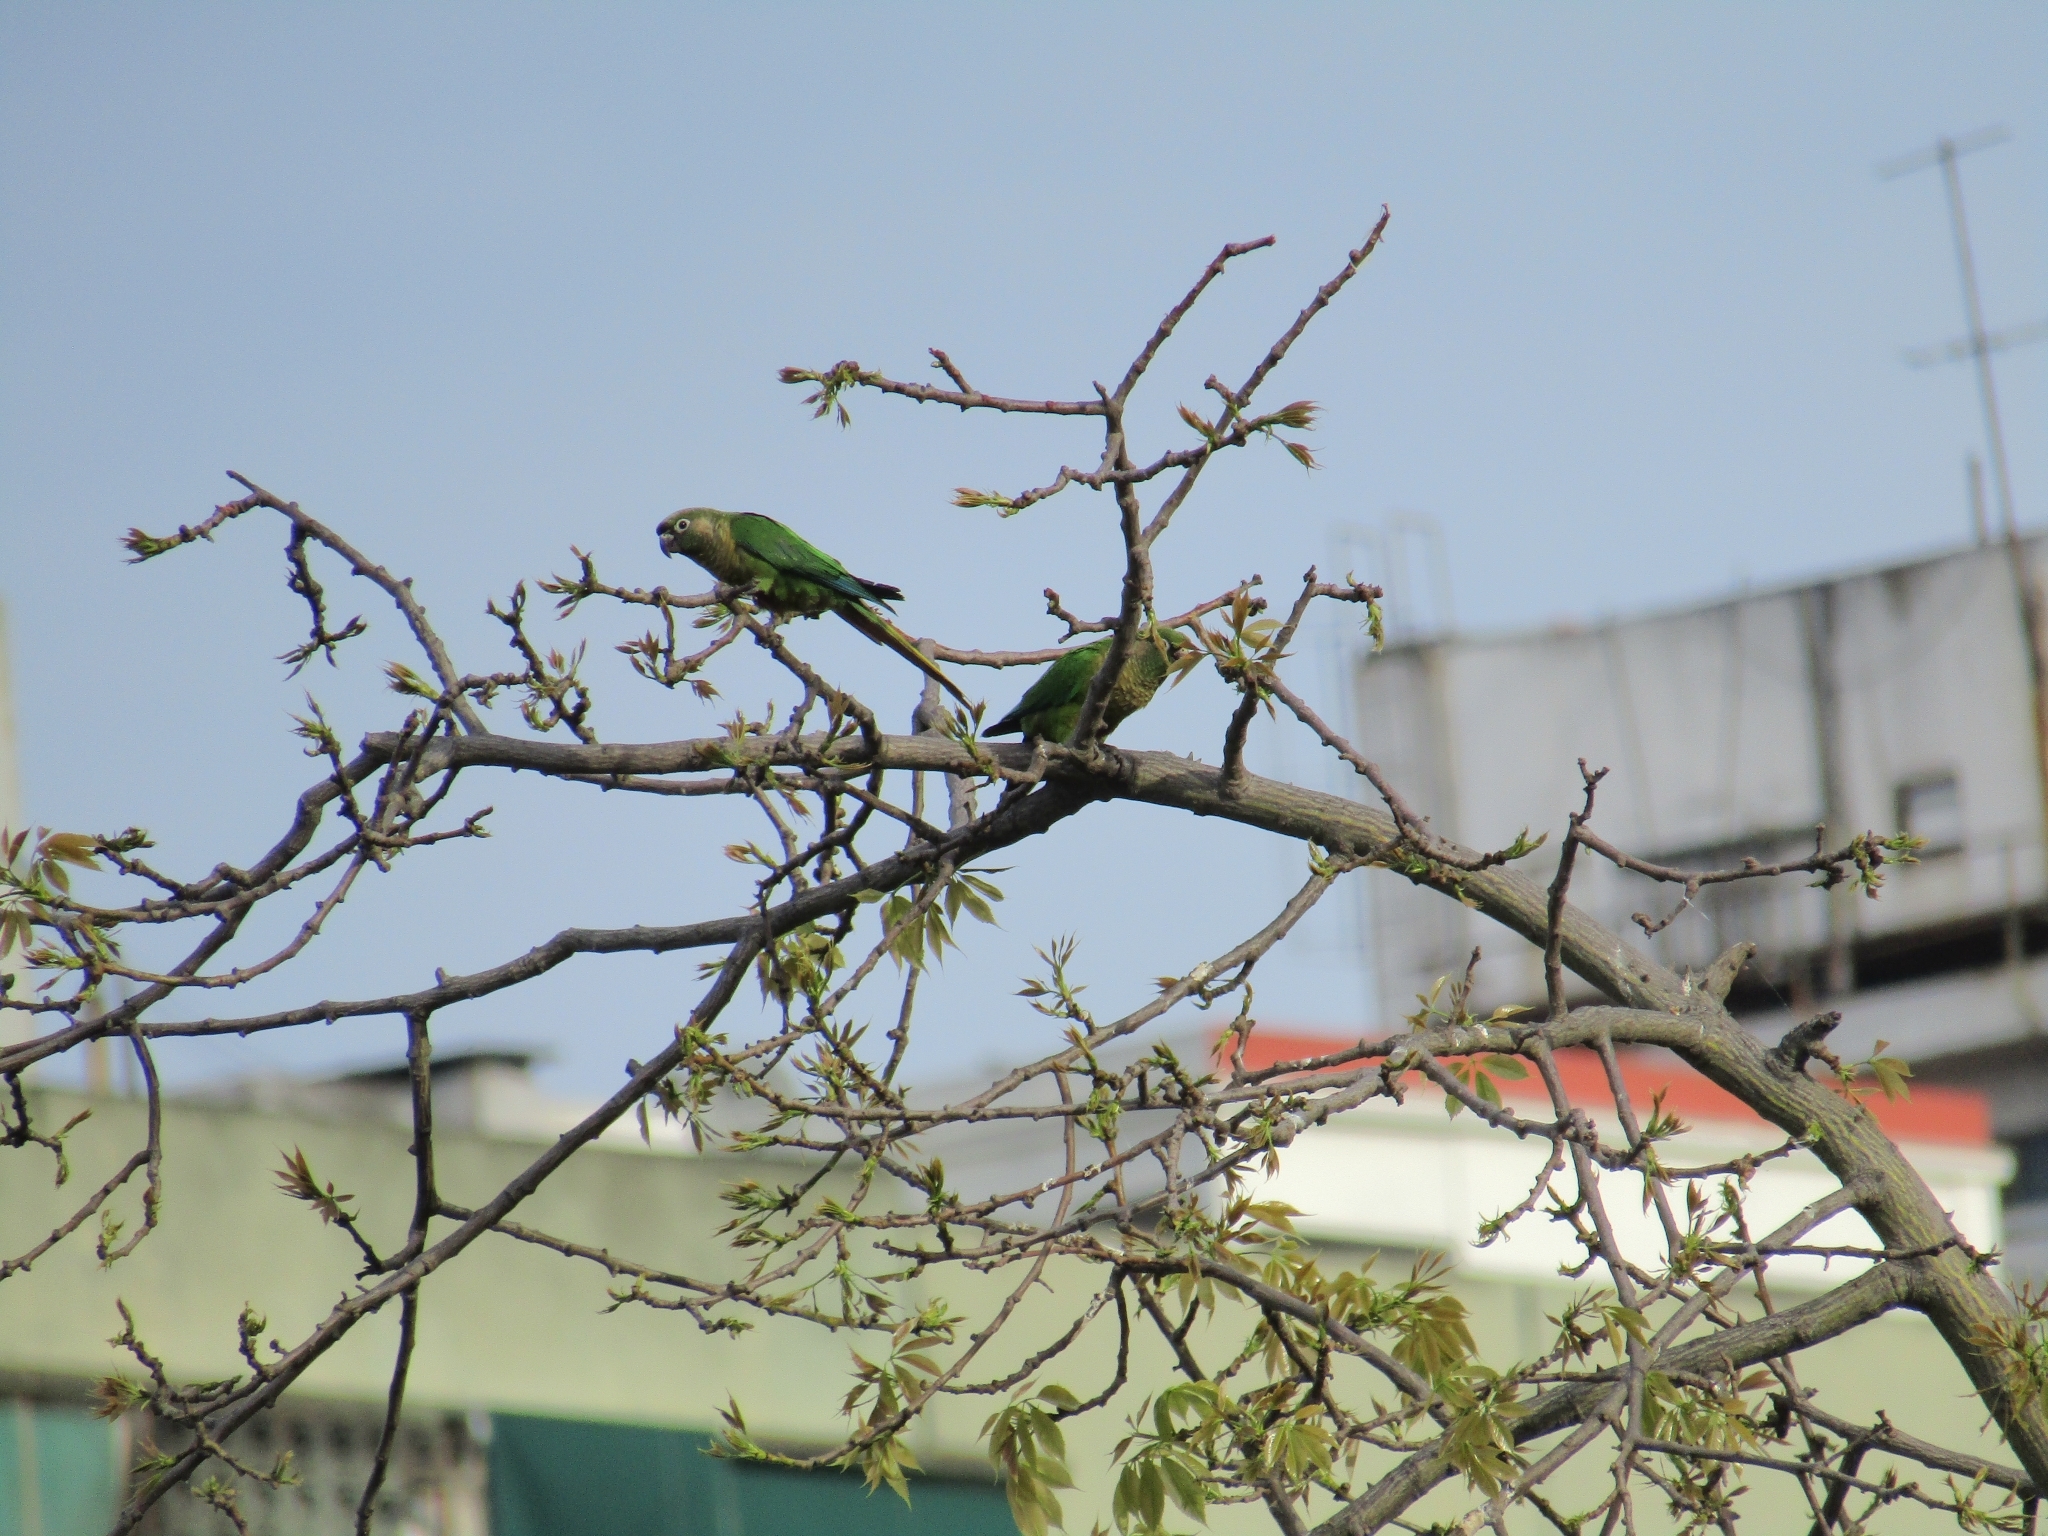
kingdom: Animalia
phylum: Chordata
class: Aves
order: Psittaciformes
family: Psittacidae
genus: Pyrrhura
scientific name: Pyrrhura frontalis
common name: Maroon-bellied parakeet
